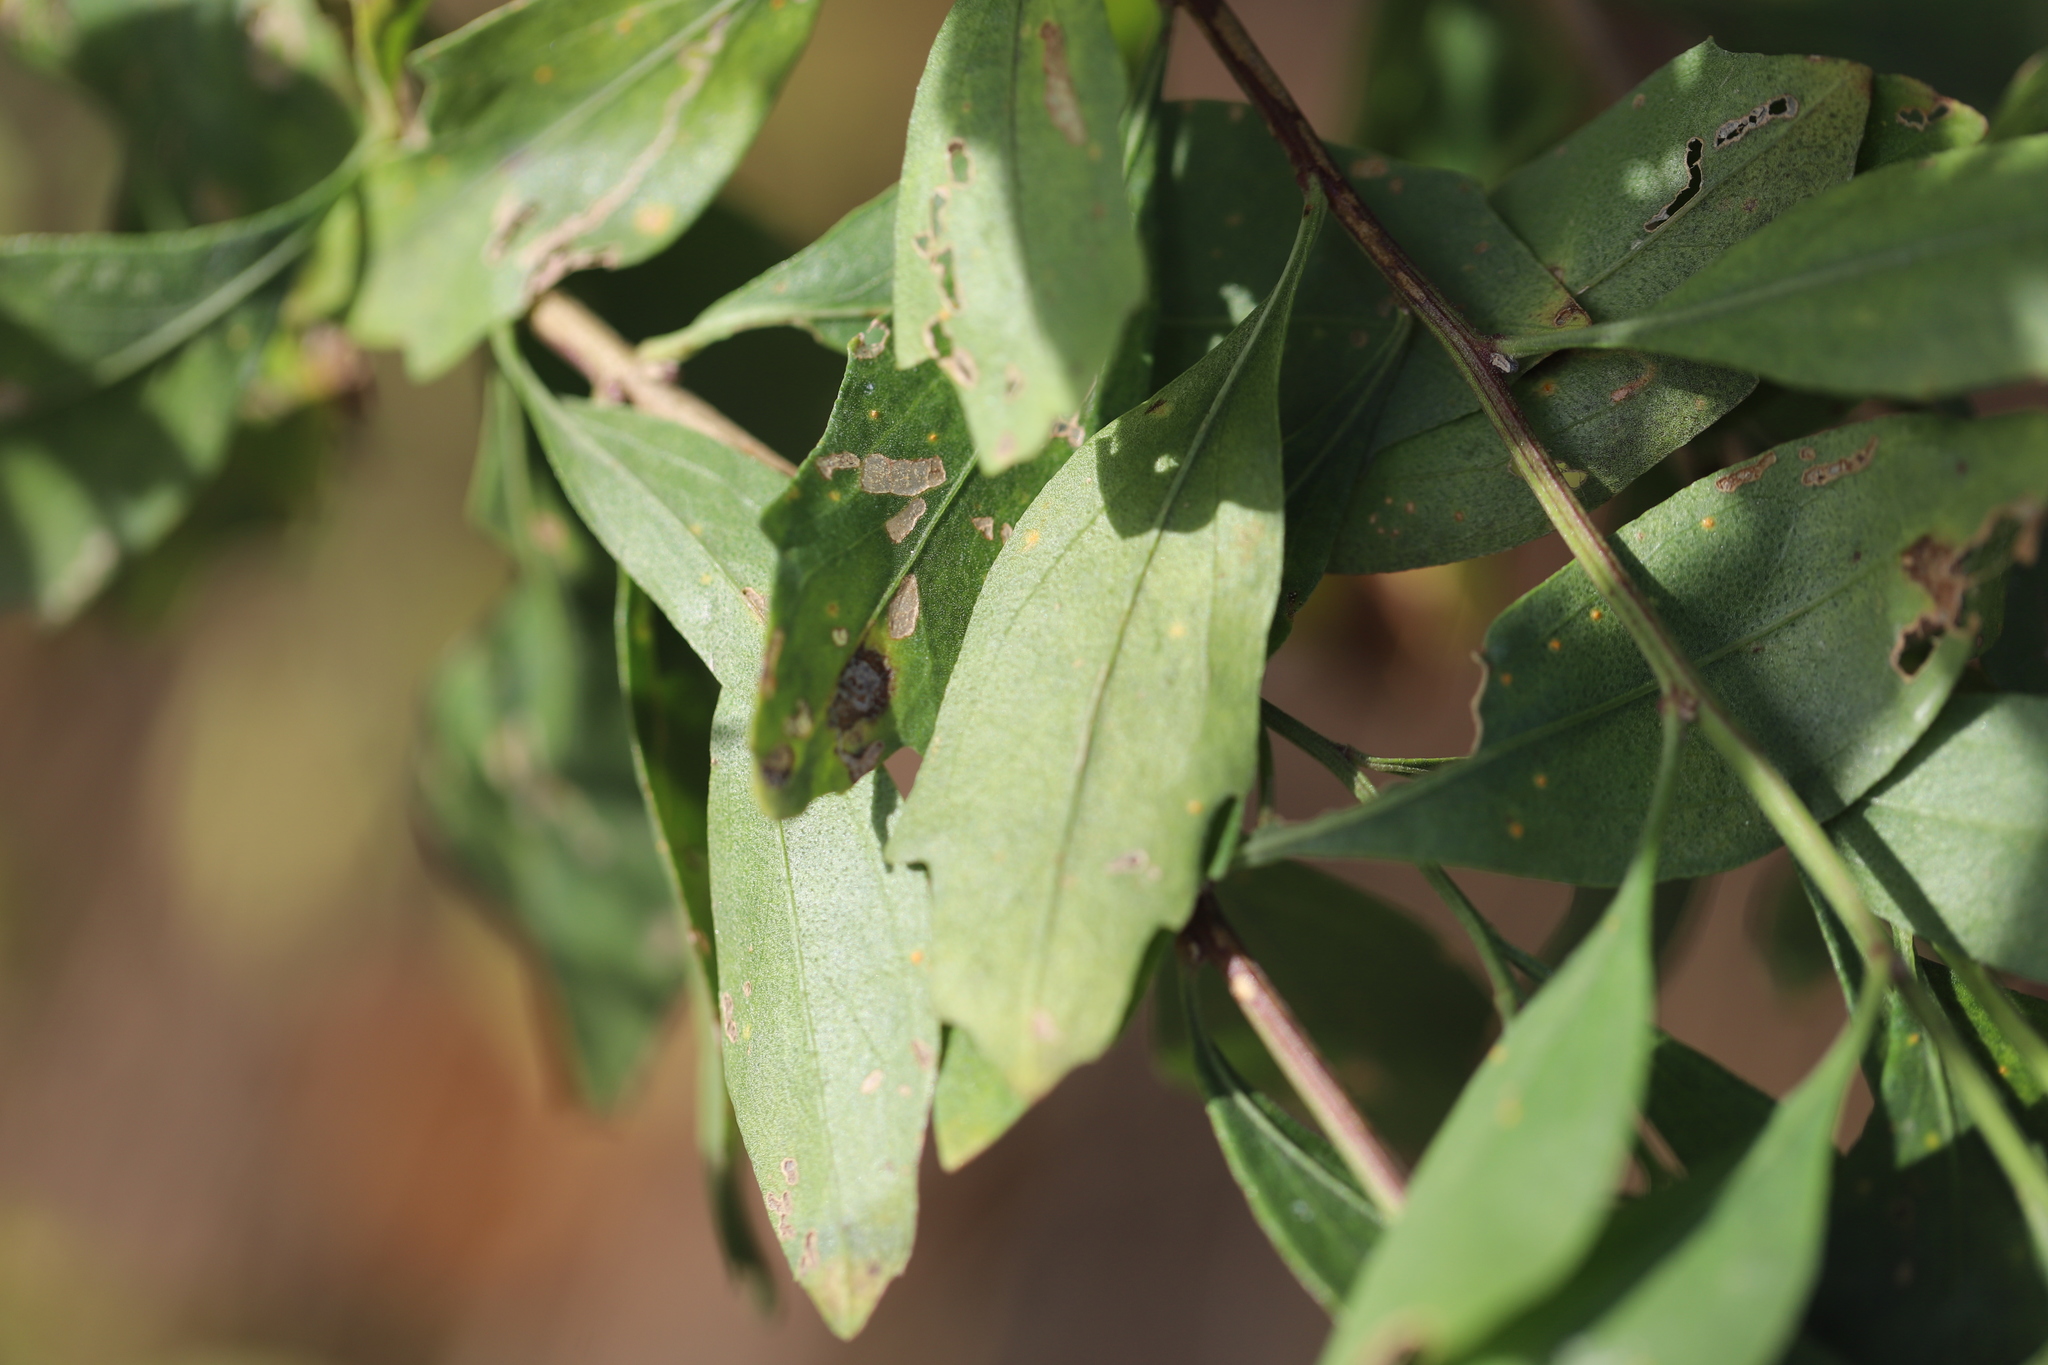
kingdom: Plantae
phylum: Tracheophyta
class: Magnoliopsida
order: Asterales
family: Asteraceae
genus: Baccharis
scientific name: Baccharis halimifolia
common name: Eastern baccharis
